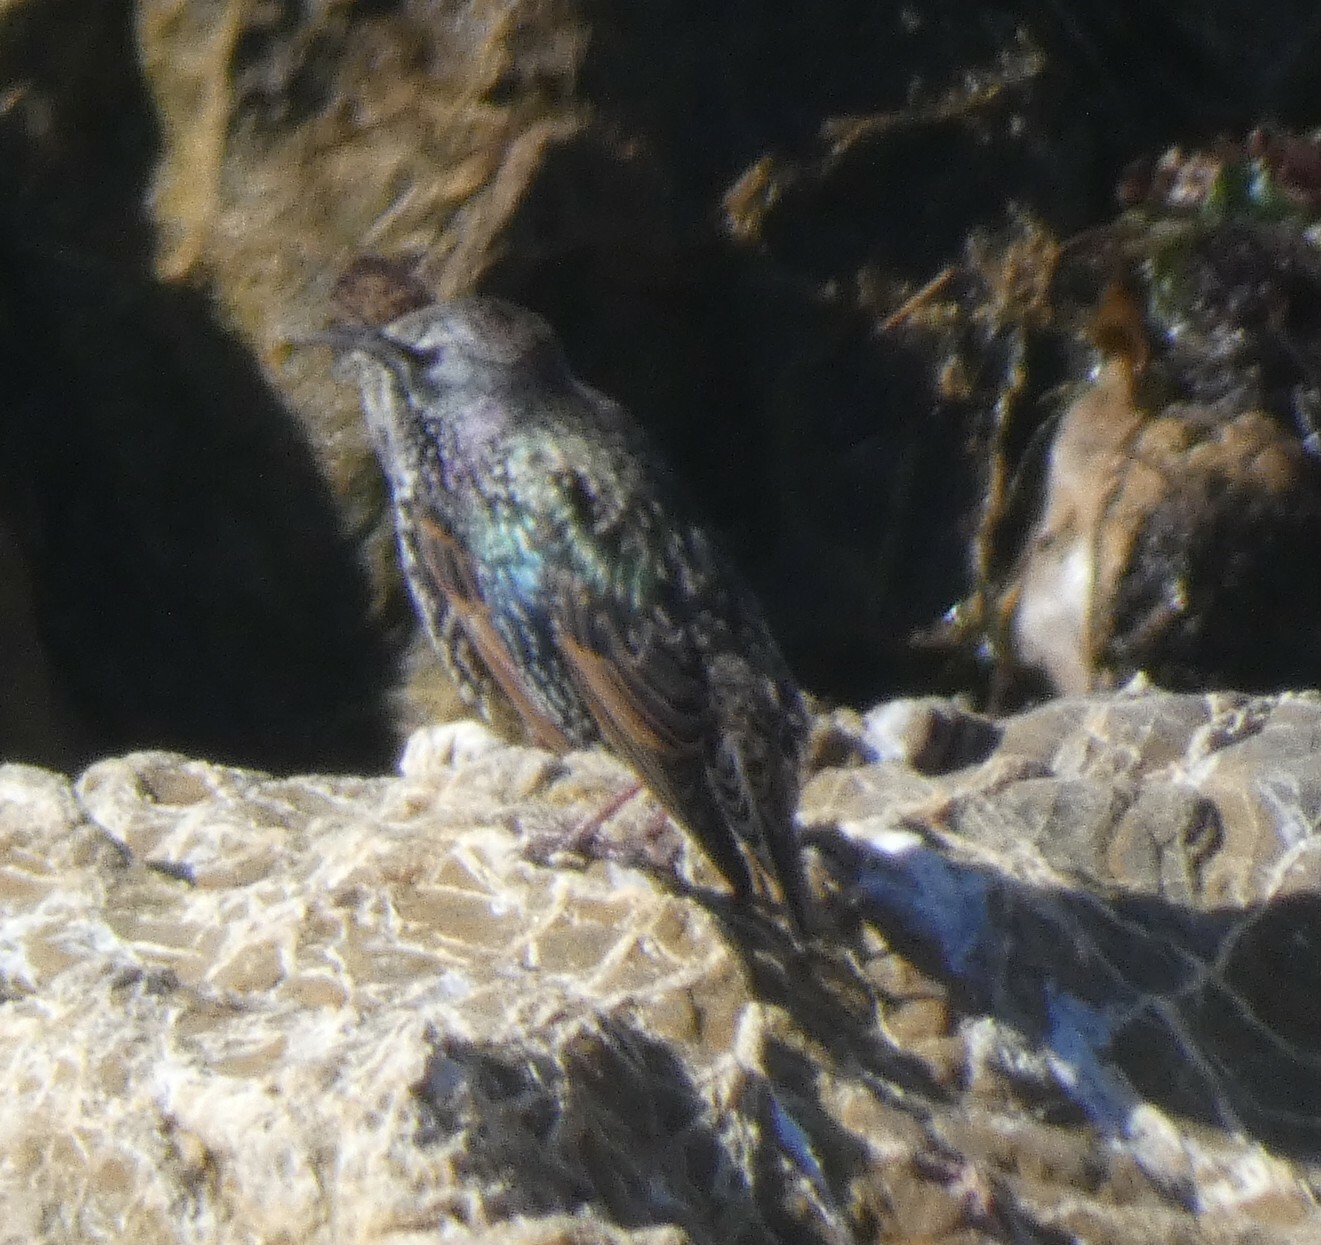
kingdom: Animalia
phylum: Chordata
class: Aves
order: Passeriformes
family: Sturnidae
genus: Sturnus
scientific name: Sturnus vulgaris
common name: Common starling
